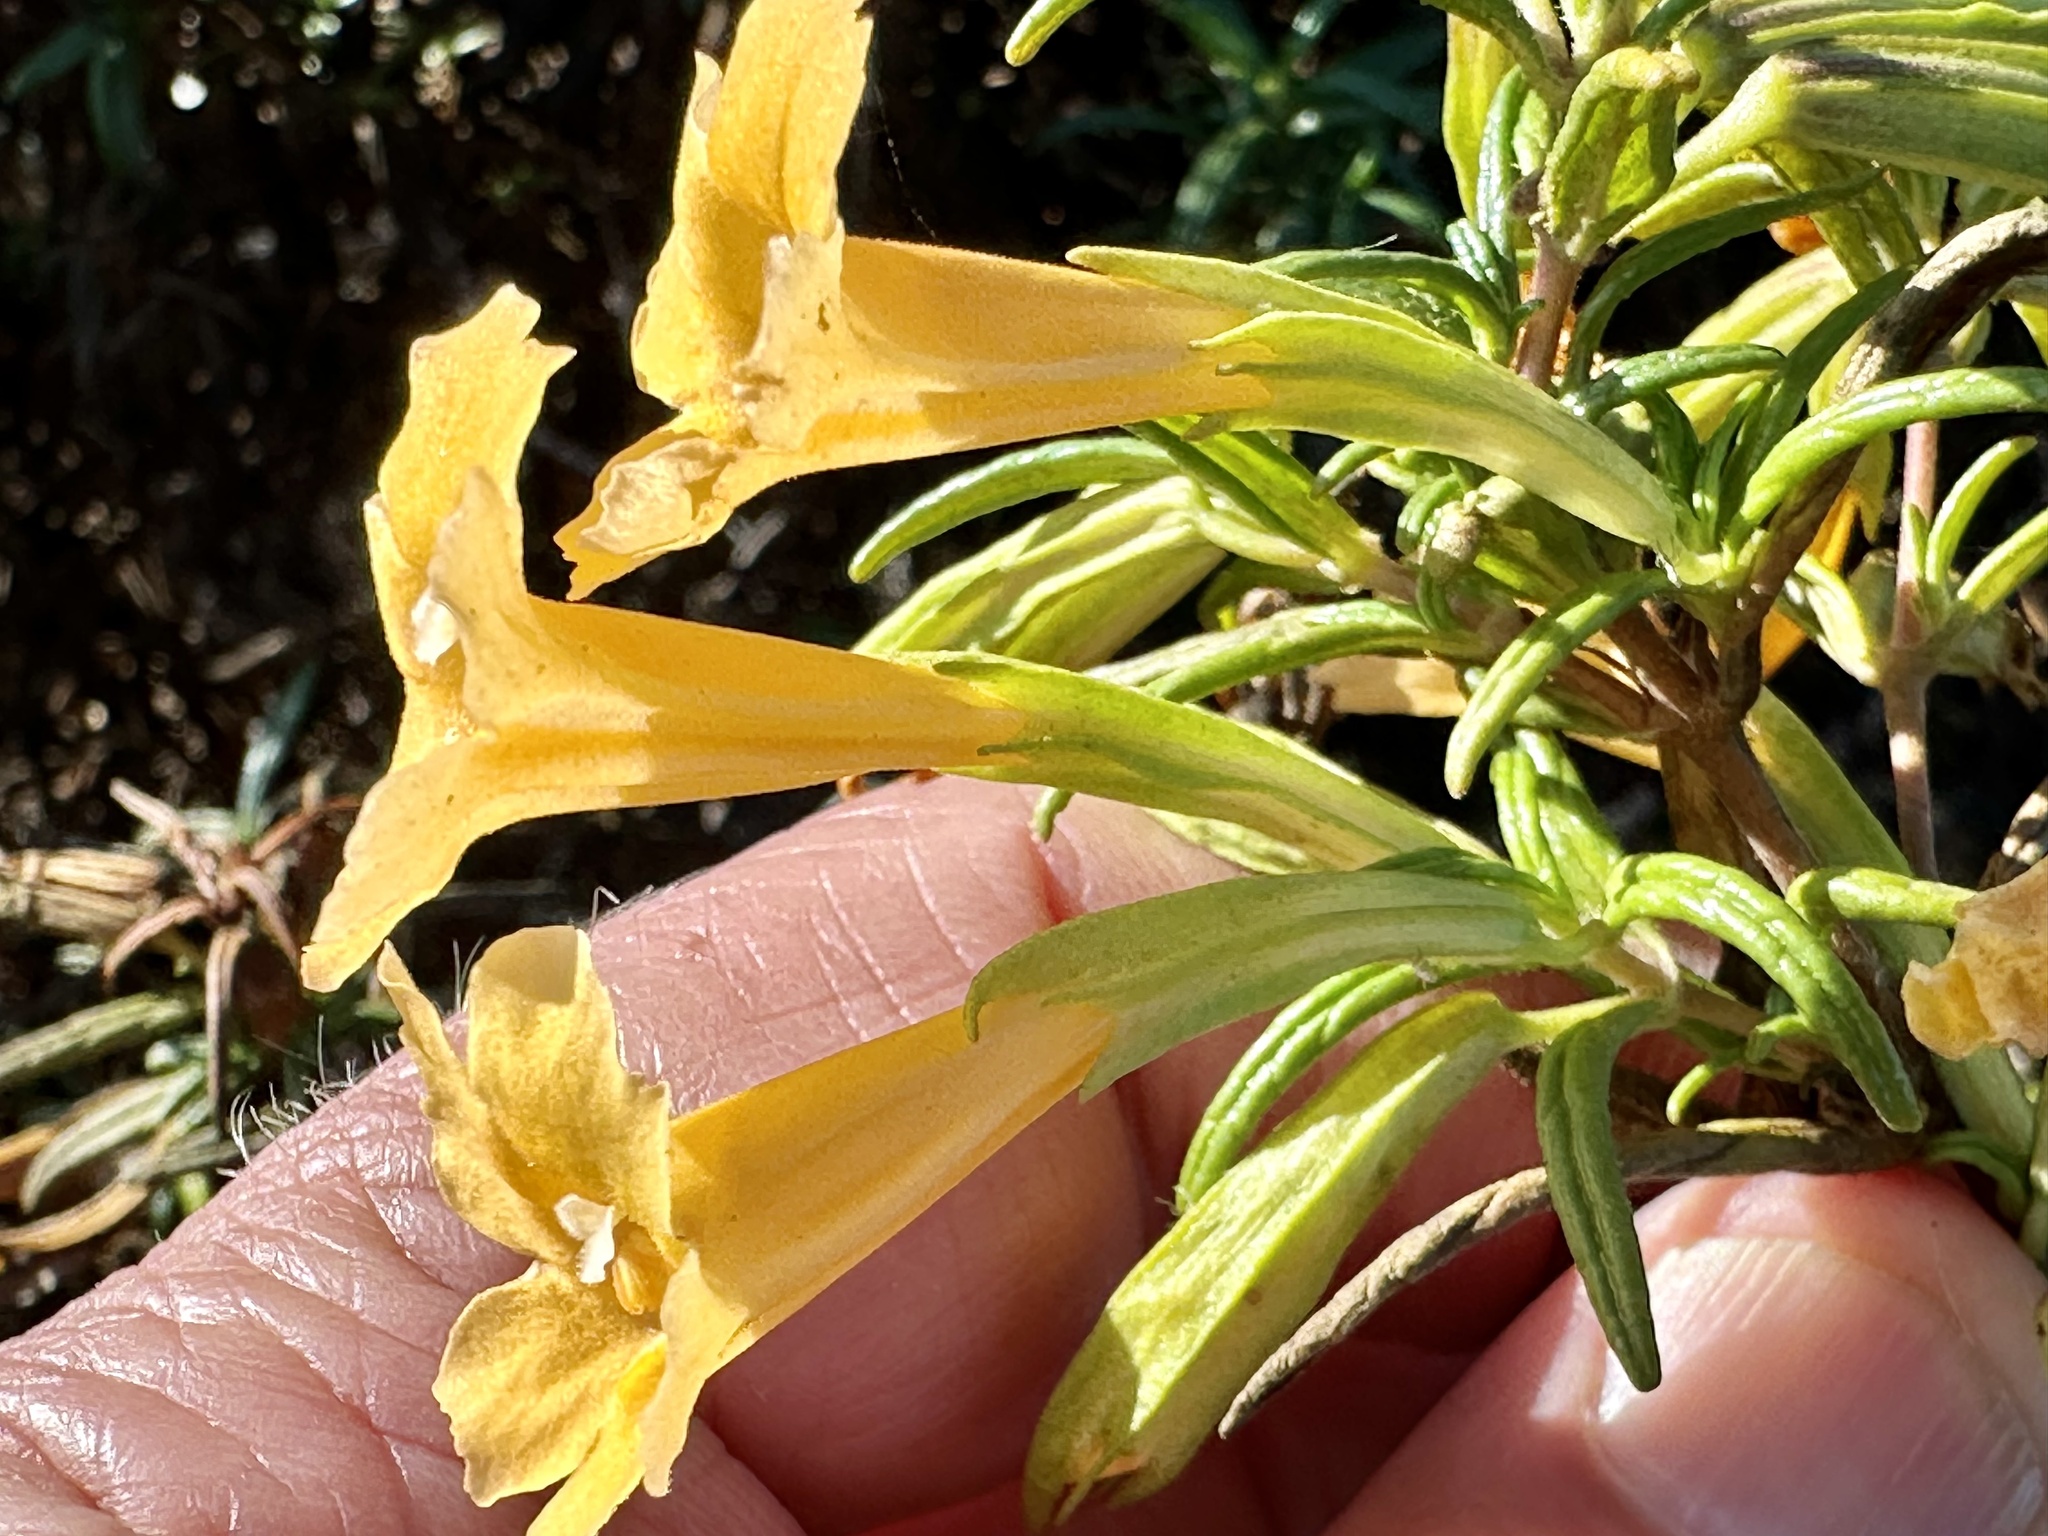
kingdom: Plantae
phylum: Tracheophyta
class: Magnoliopsida
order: Lamiales
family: Phrymaceae
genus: Diplacus
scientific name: Diplacus aurantiacus
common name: Bush monkey-flower
